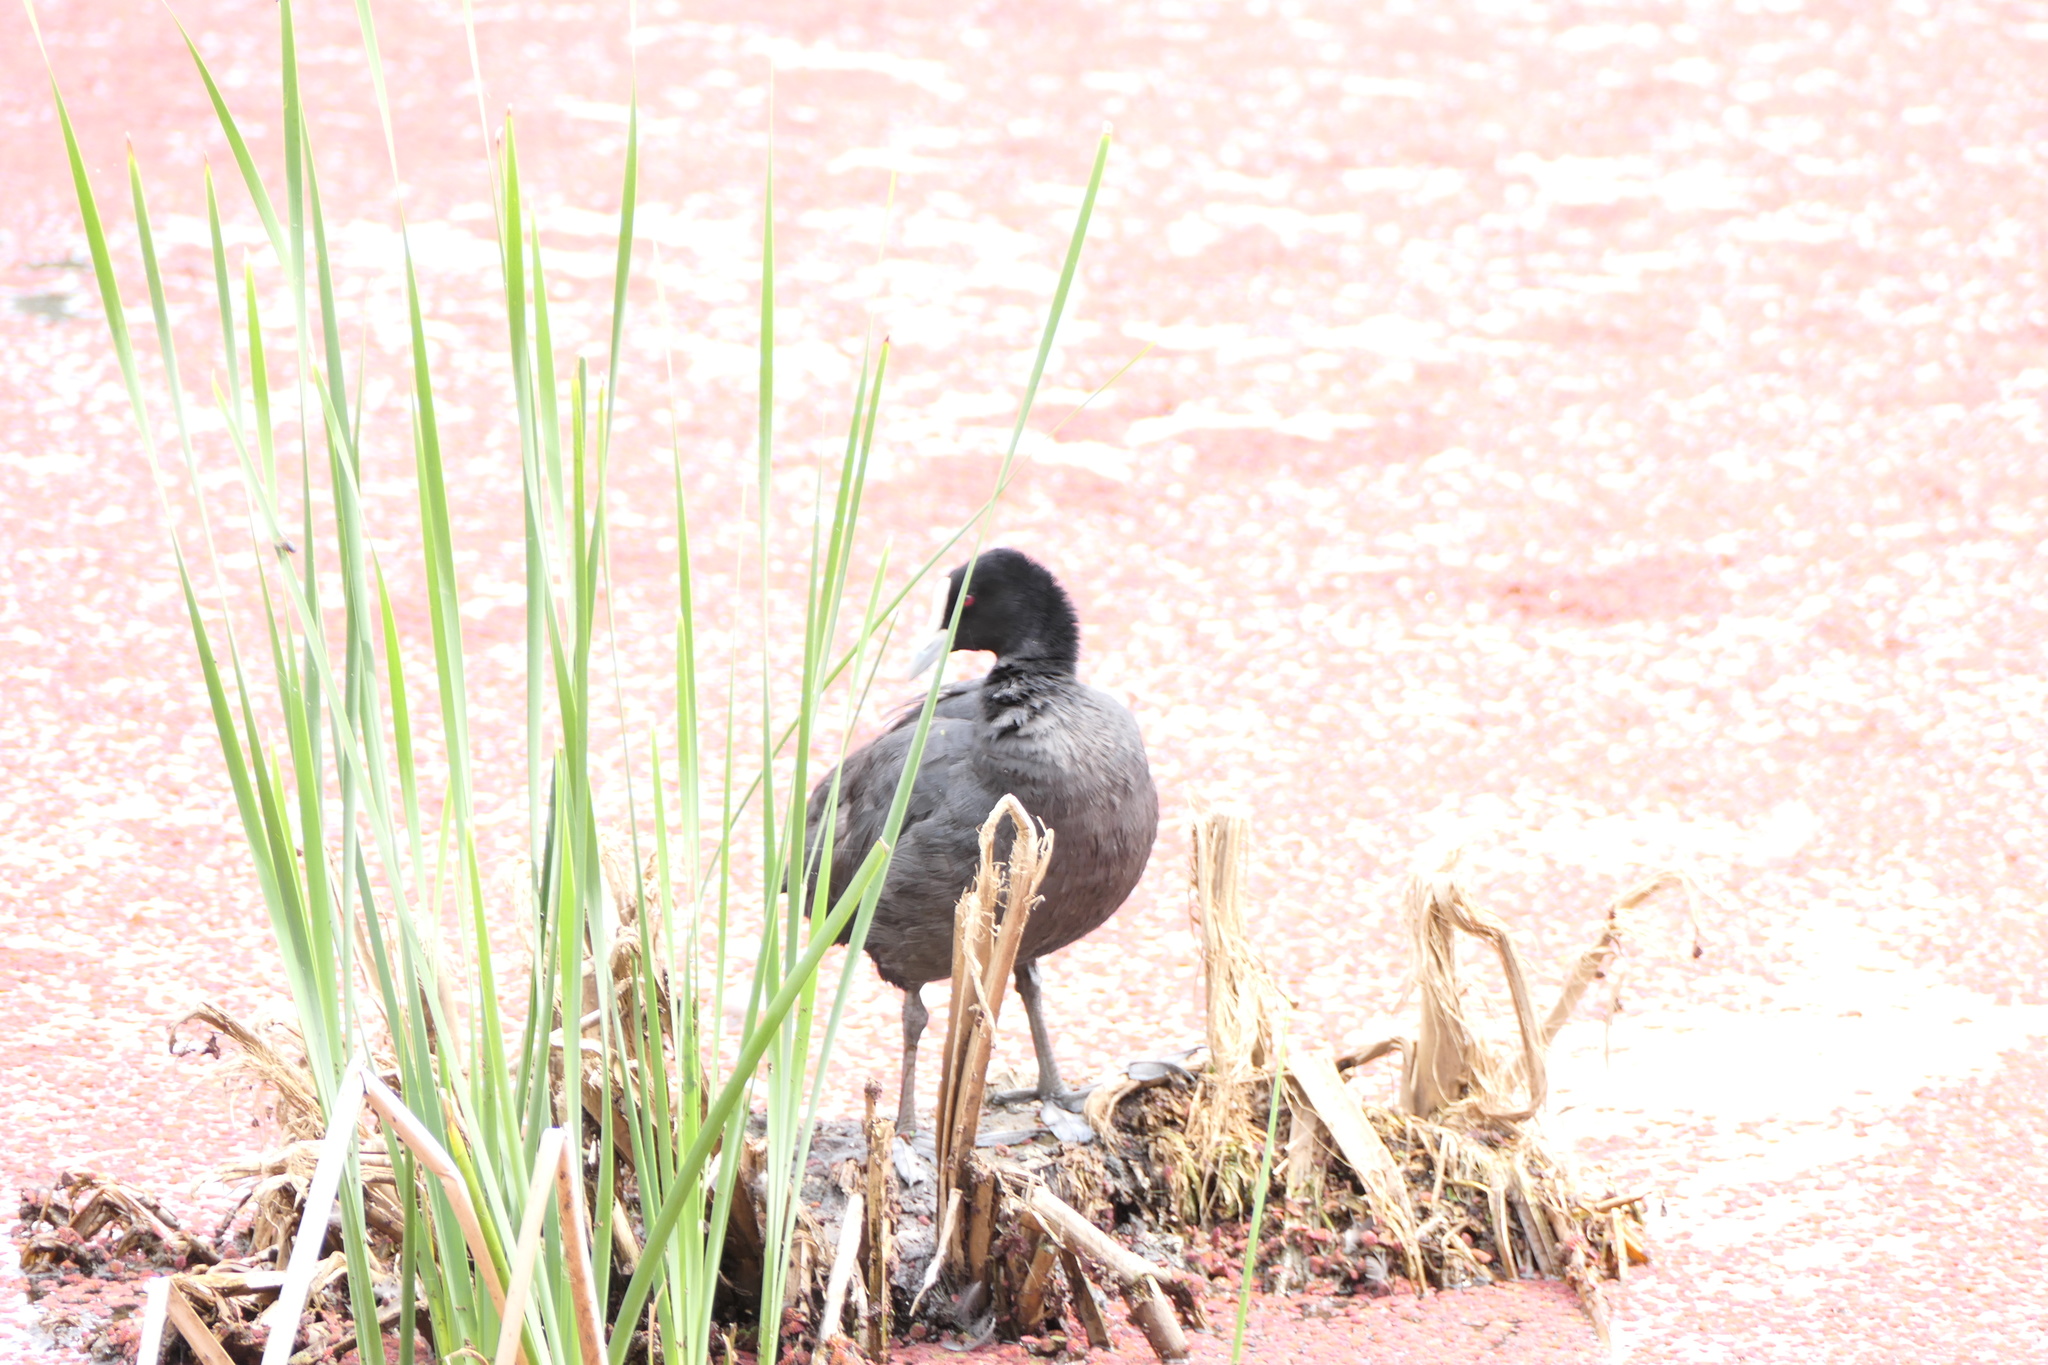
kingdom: Animalia
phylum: Chordata
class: Aves
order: Gruiformes
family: Rallidae
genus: Fulica
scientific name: Fulica atra
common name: Eurasian coot
